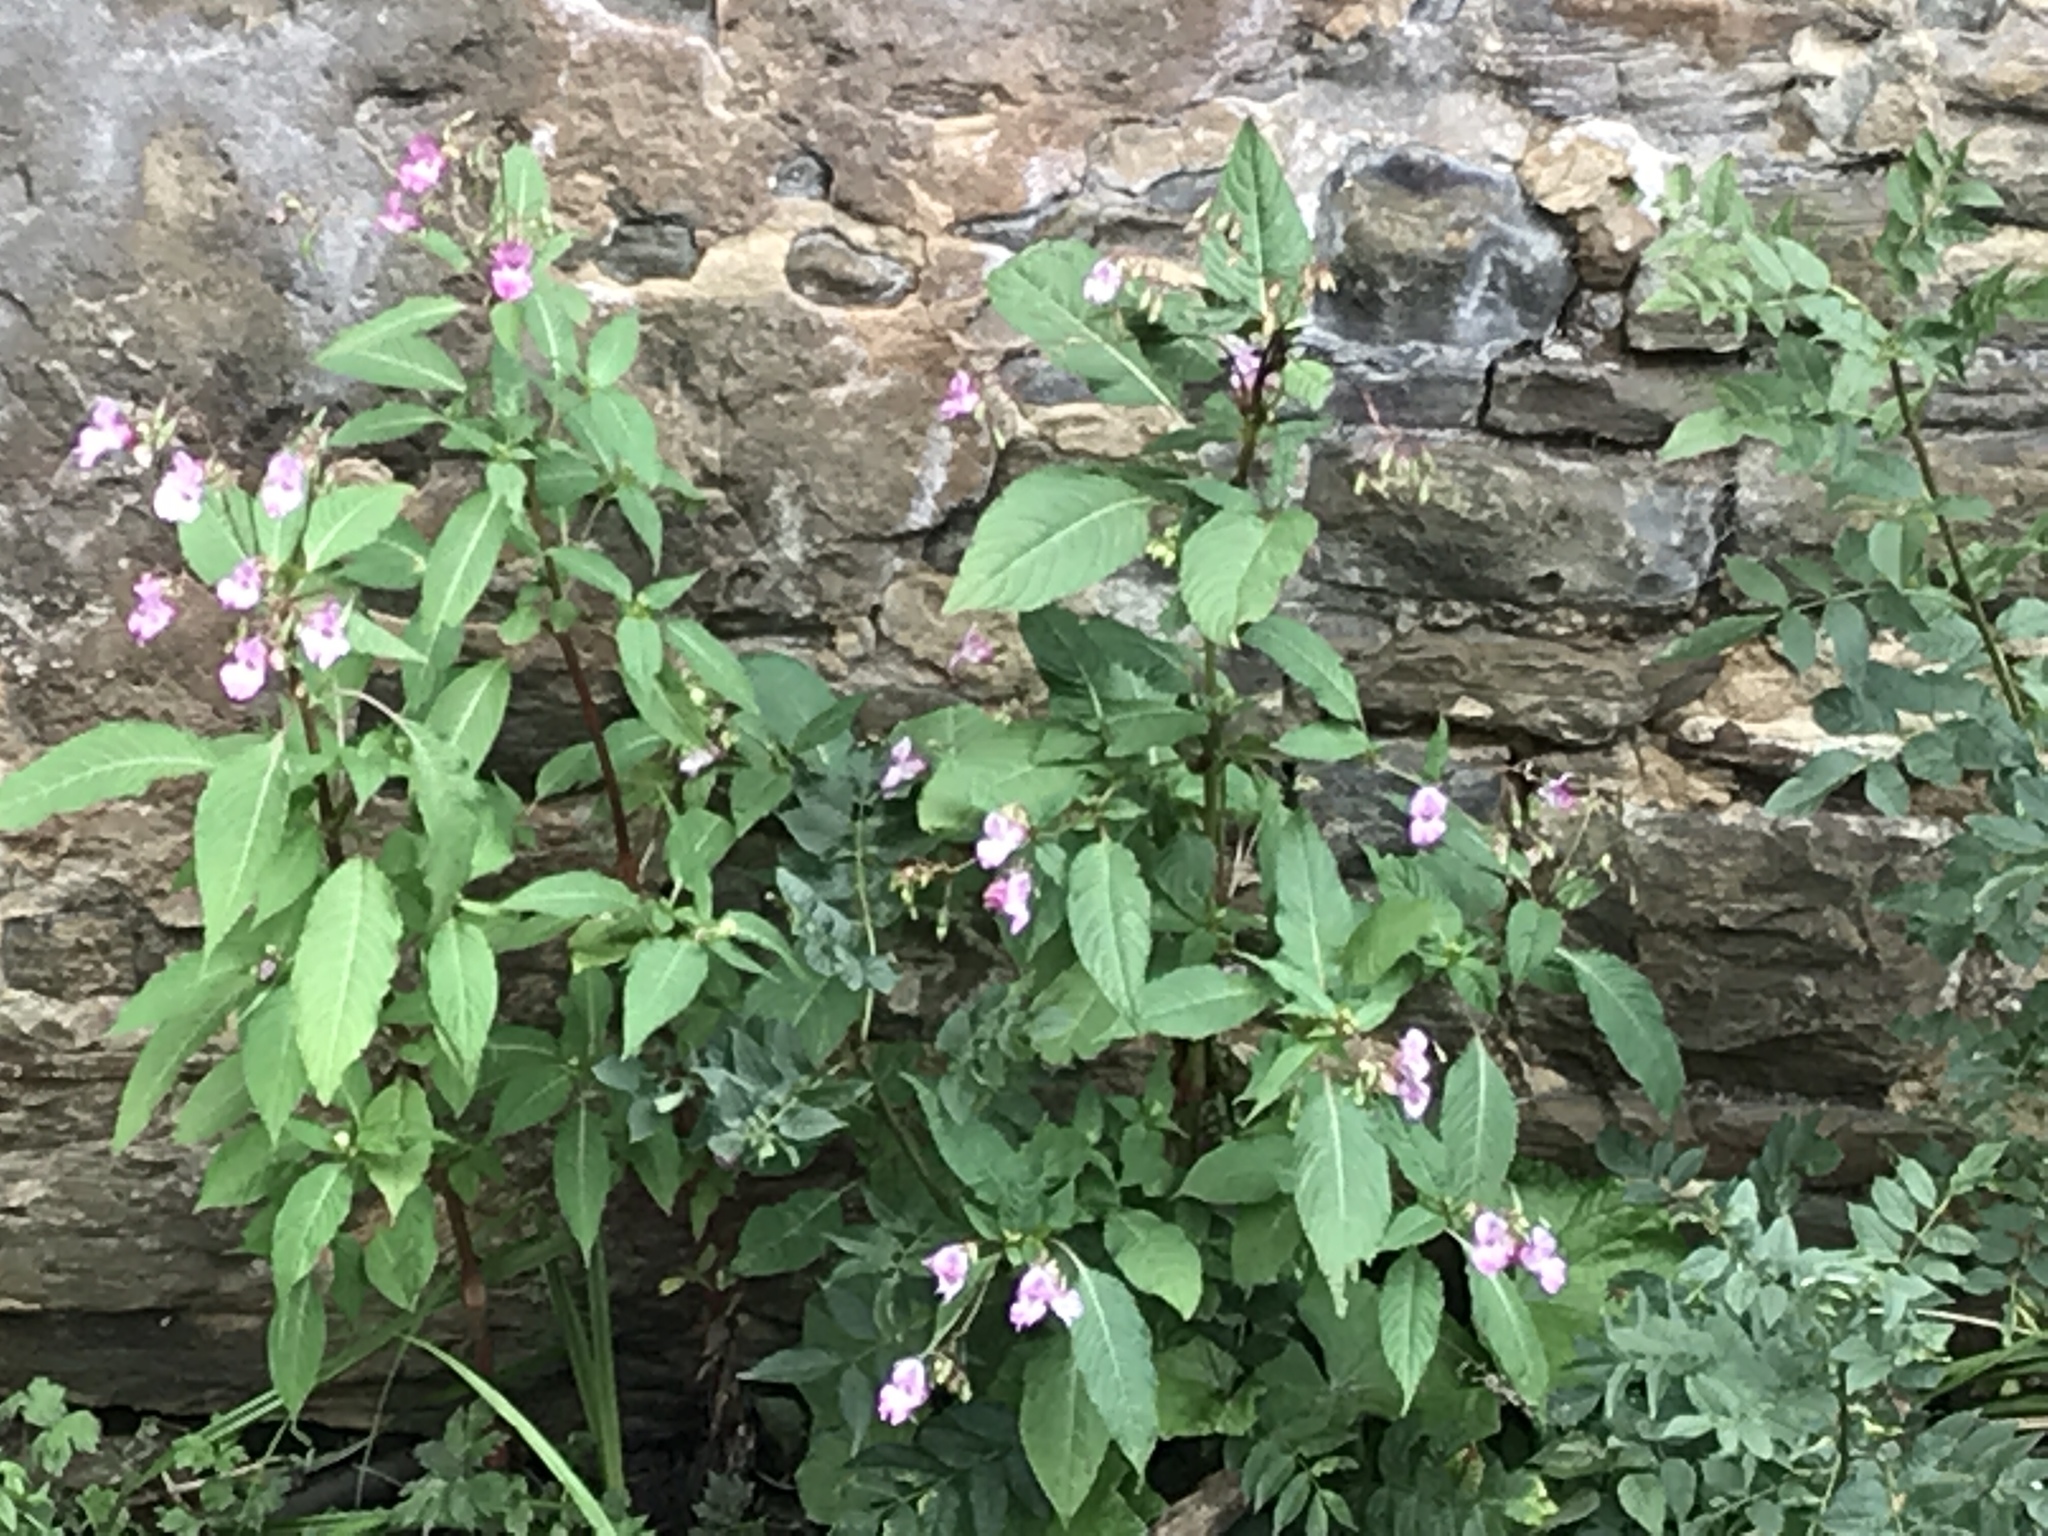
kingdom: Plantae
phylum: Tracheophyta
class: Magnoliopsida
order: Ericales
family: Balsaminaceae
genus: Impatiens
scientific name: Impatiens glandulifera
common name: Himalayan balsam
